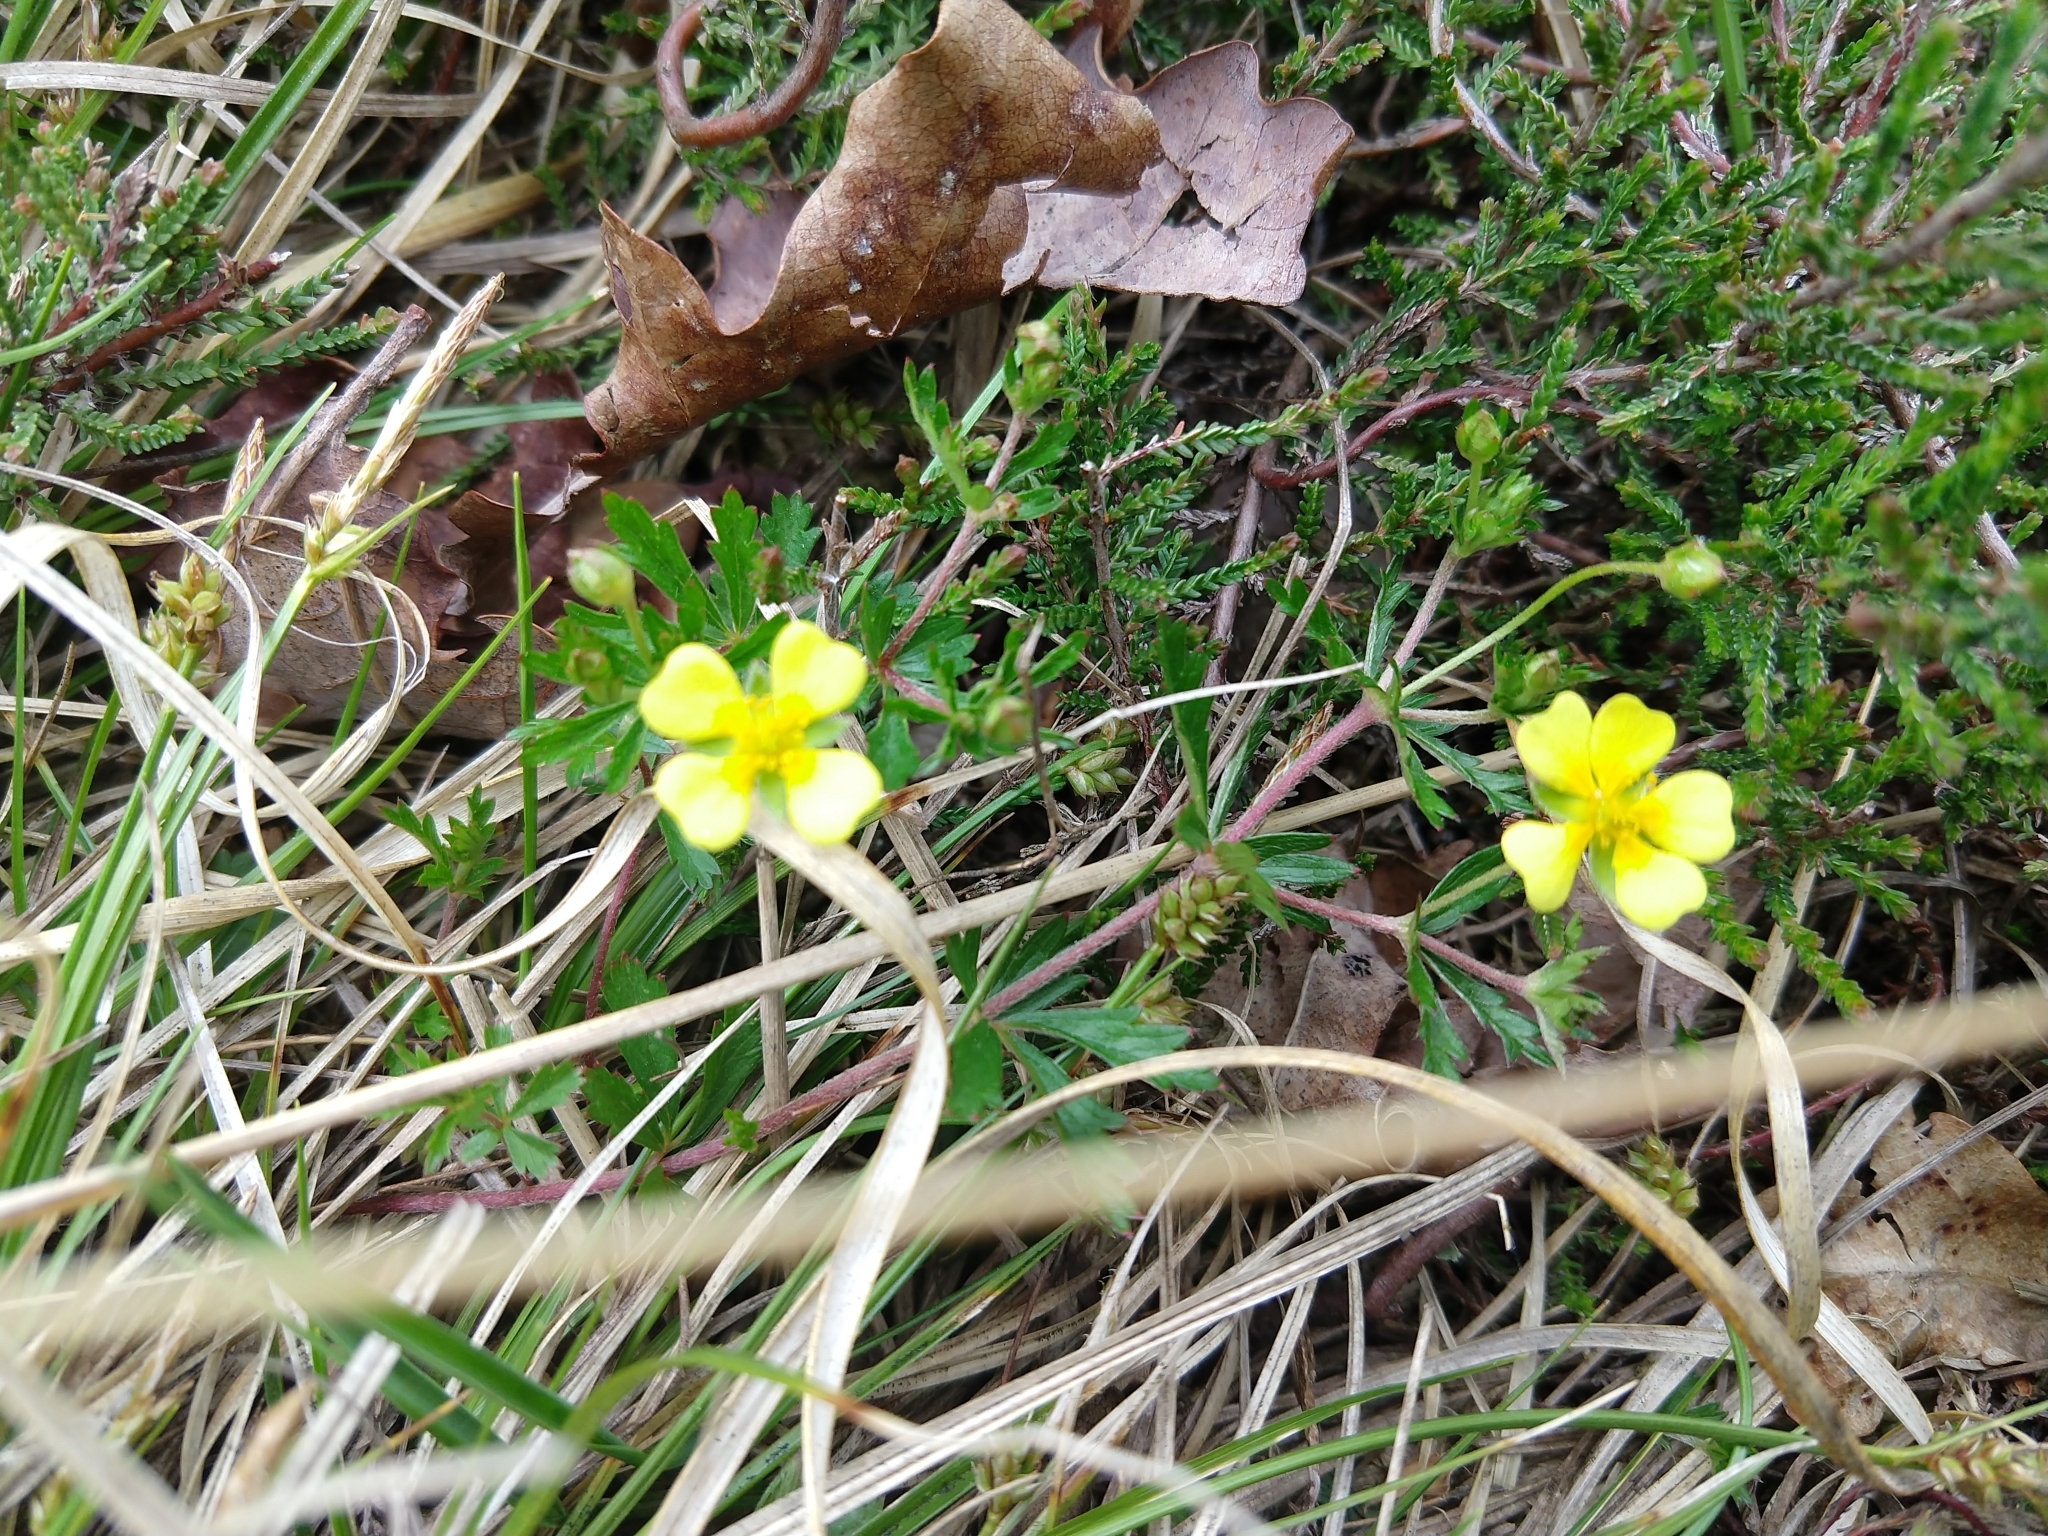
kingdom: Plantae
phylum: Tracheophyta
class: Magnoliopsida
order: Rosales
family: Rosaceae
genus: Potentilla
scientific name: Potentilla erecta
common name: Tormentil
